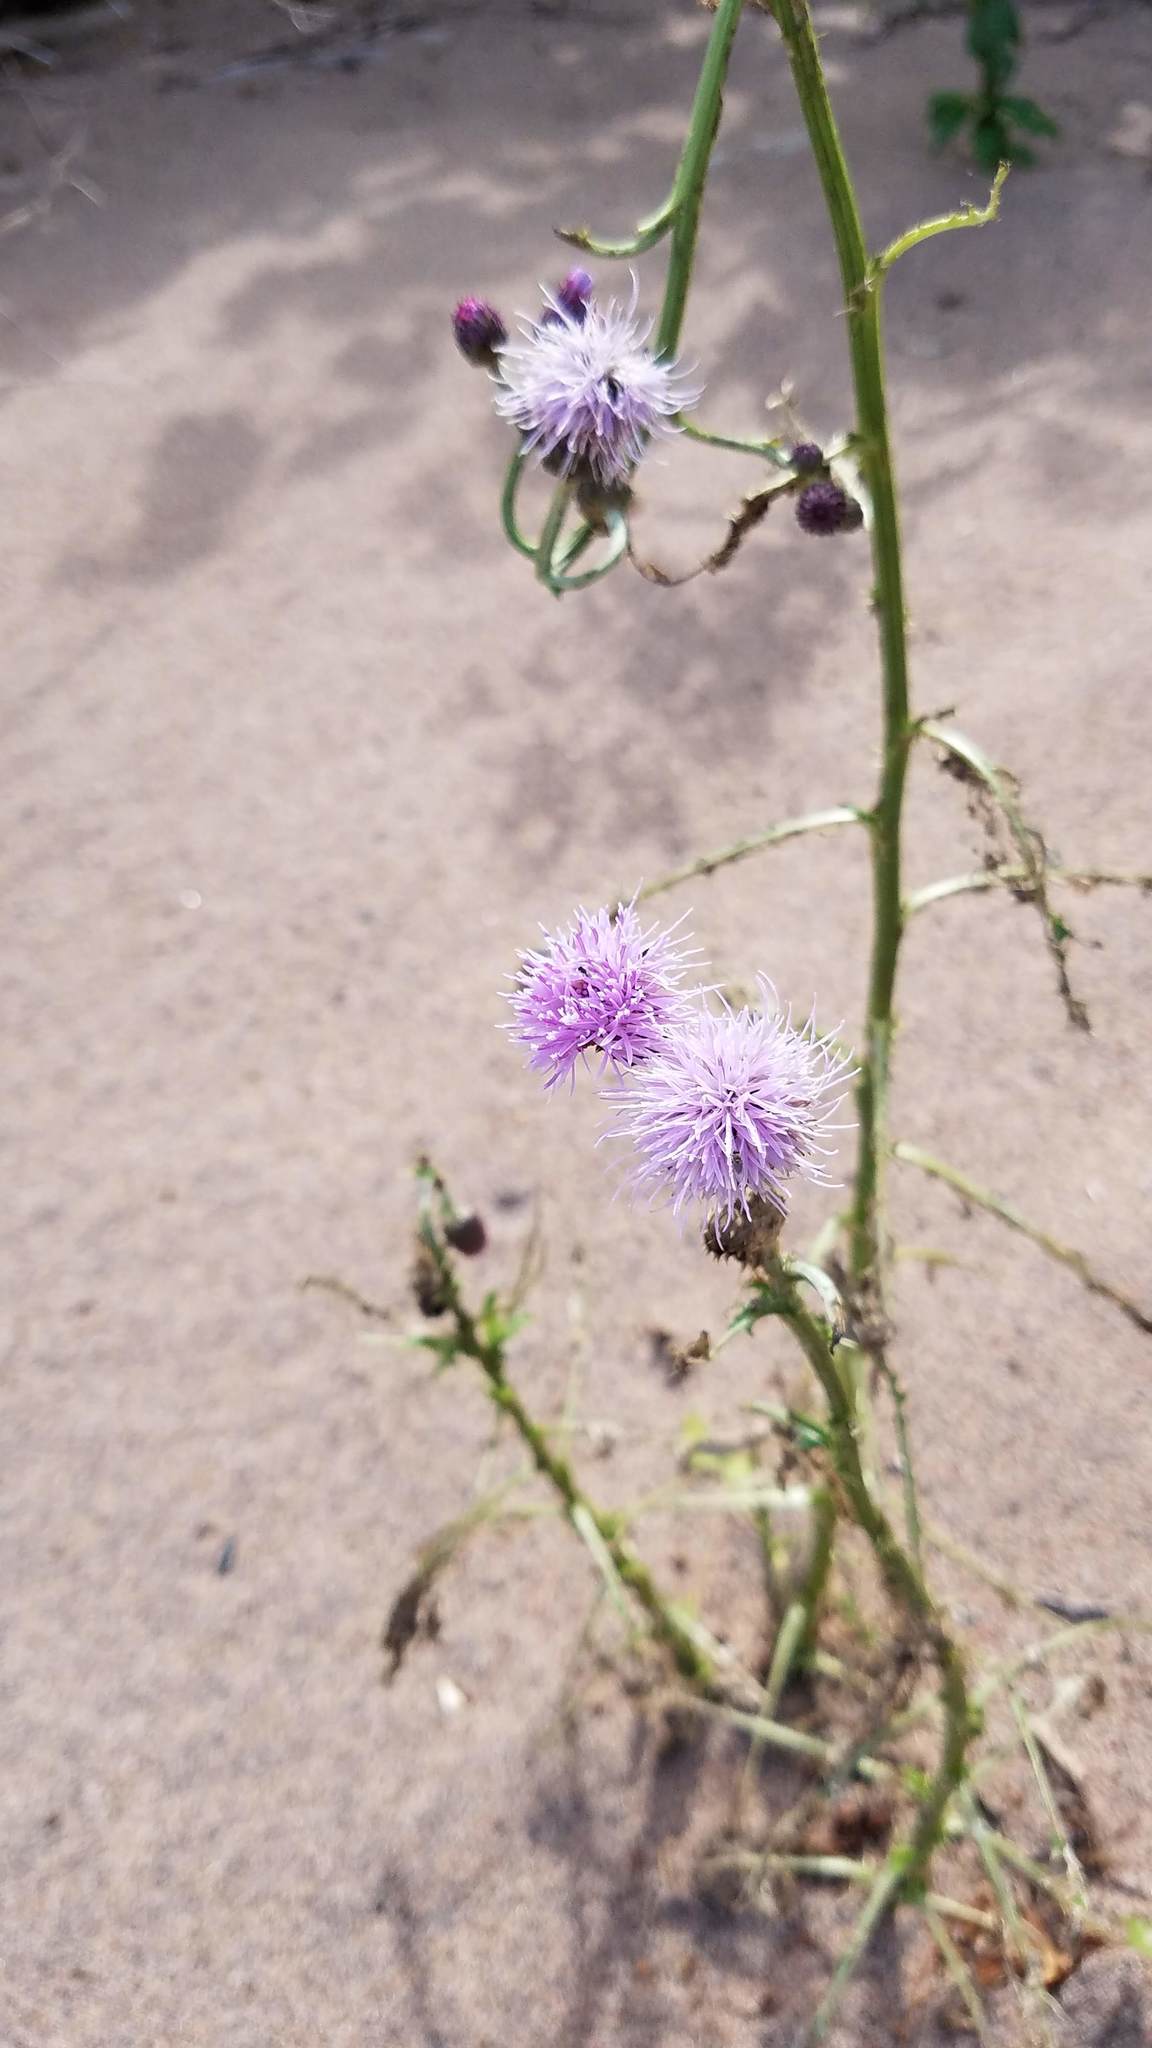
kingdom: Plantae
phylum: Tracheophyta
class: Magnoliopsida
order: Asterales
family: Asteraceae
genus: Cirsium
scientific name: Cirsium arvense
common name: Creeping thistle
